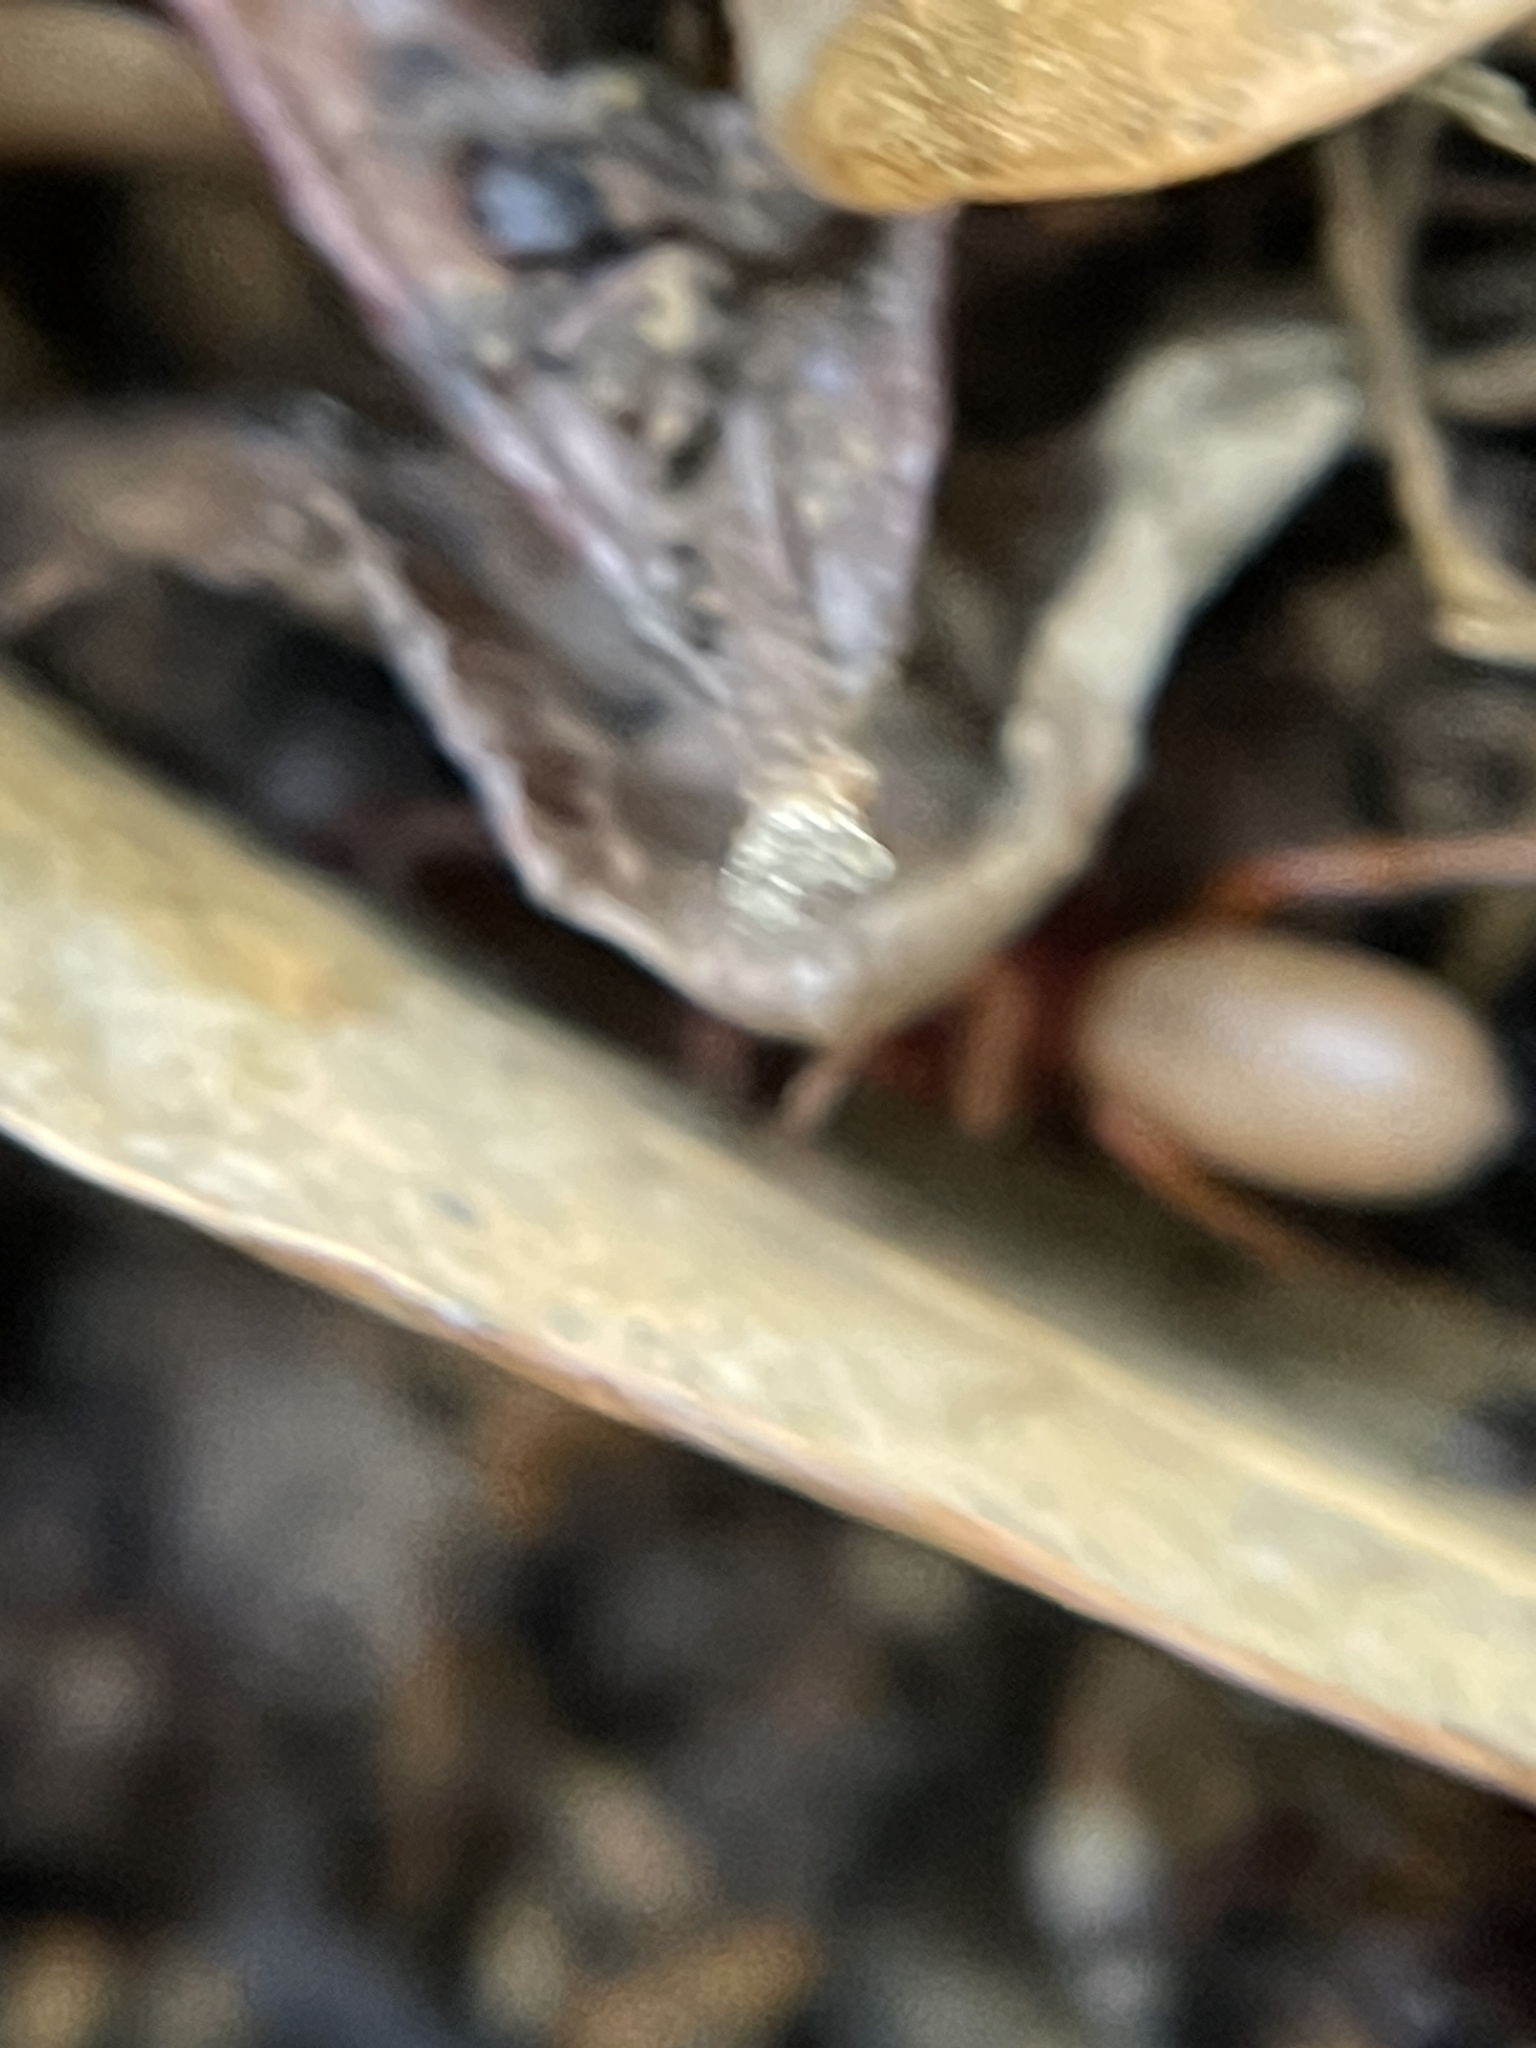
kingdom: Animalia
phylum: Arthropoda
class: Arachnida
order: Araneae
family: Dysderidae
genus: Dysdera
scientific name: Dysdera crocata
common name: Woodlouse spider
